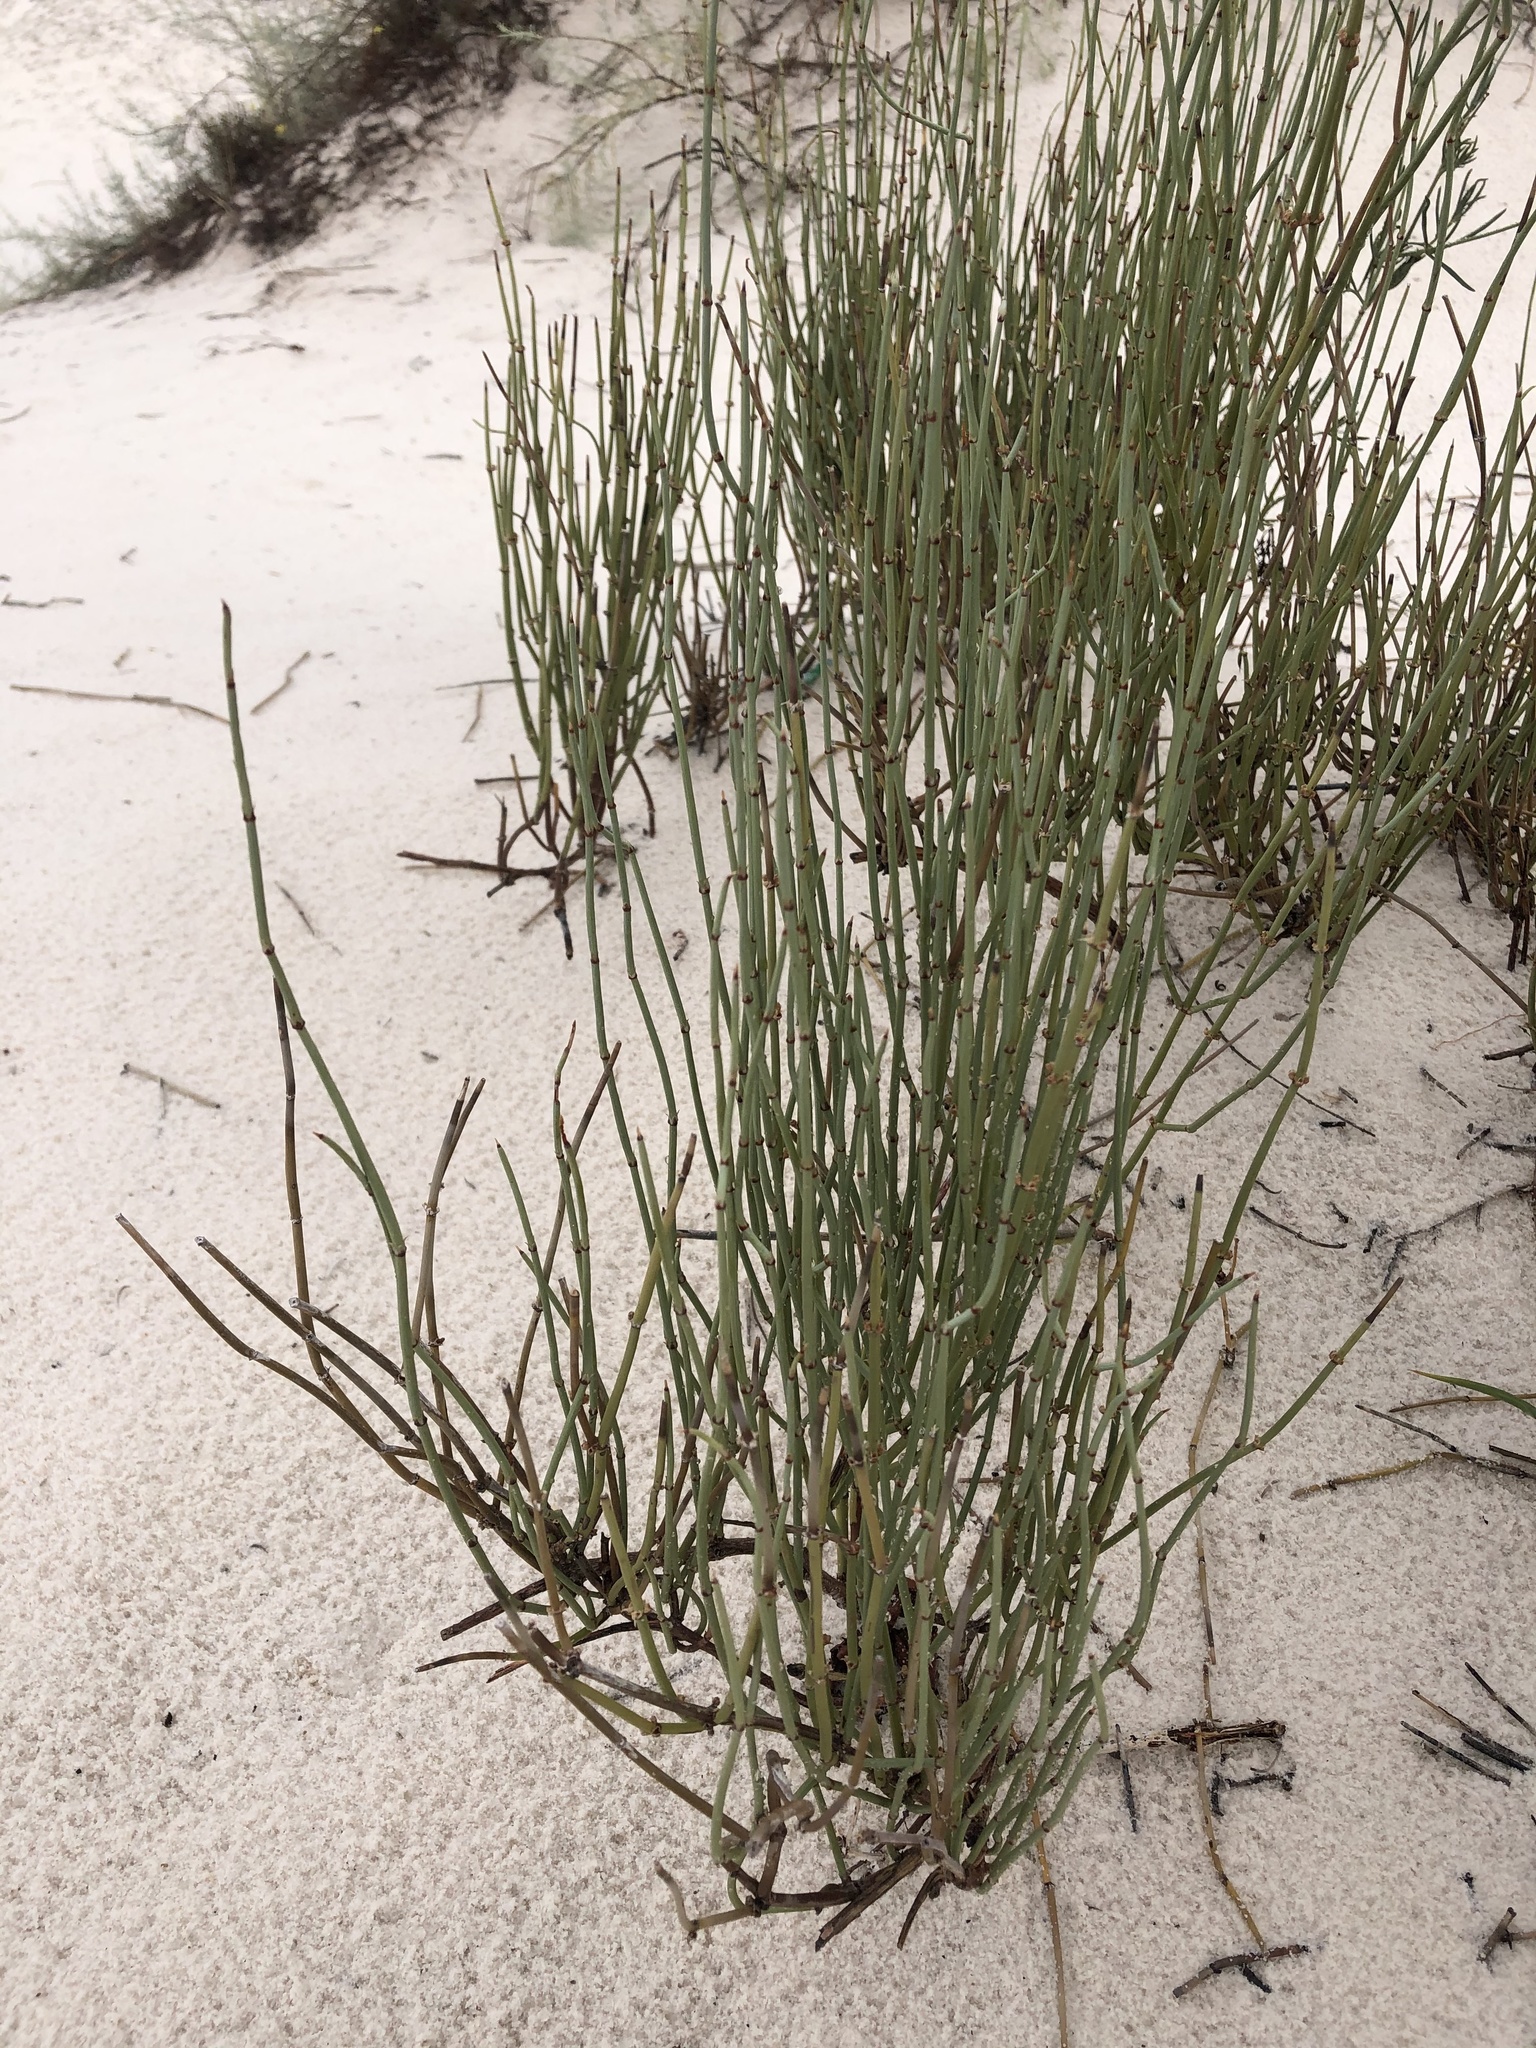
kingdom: Plantae
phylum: Tracheophyta
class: Gnetopsida
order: Ephedrales
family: Ephedraceae
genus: Ephedra
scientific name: Ephedra torreyana
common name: Torrey ephedra
